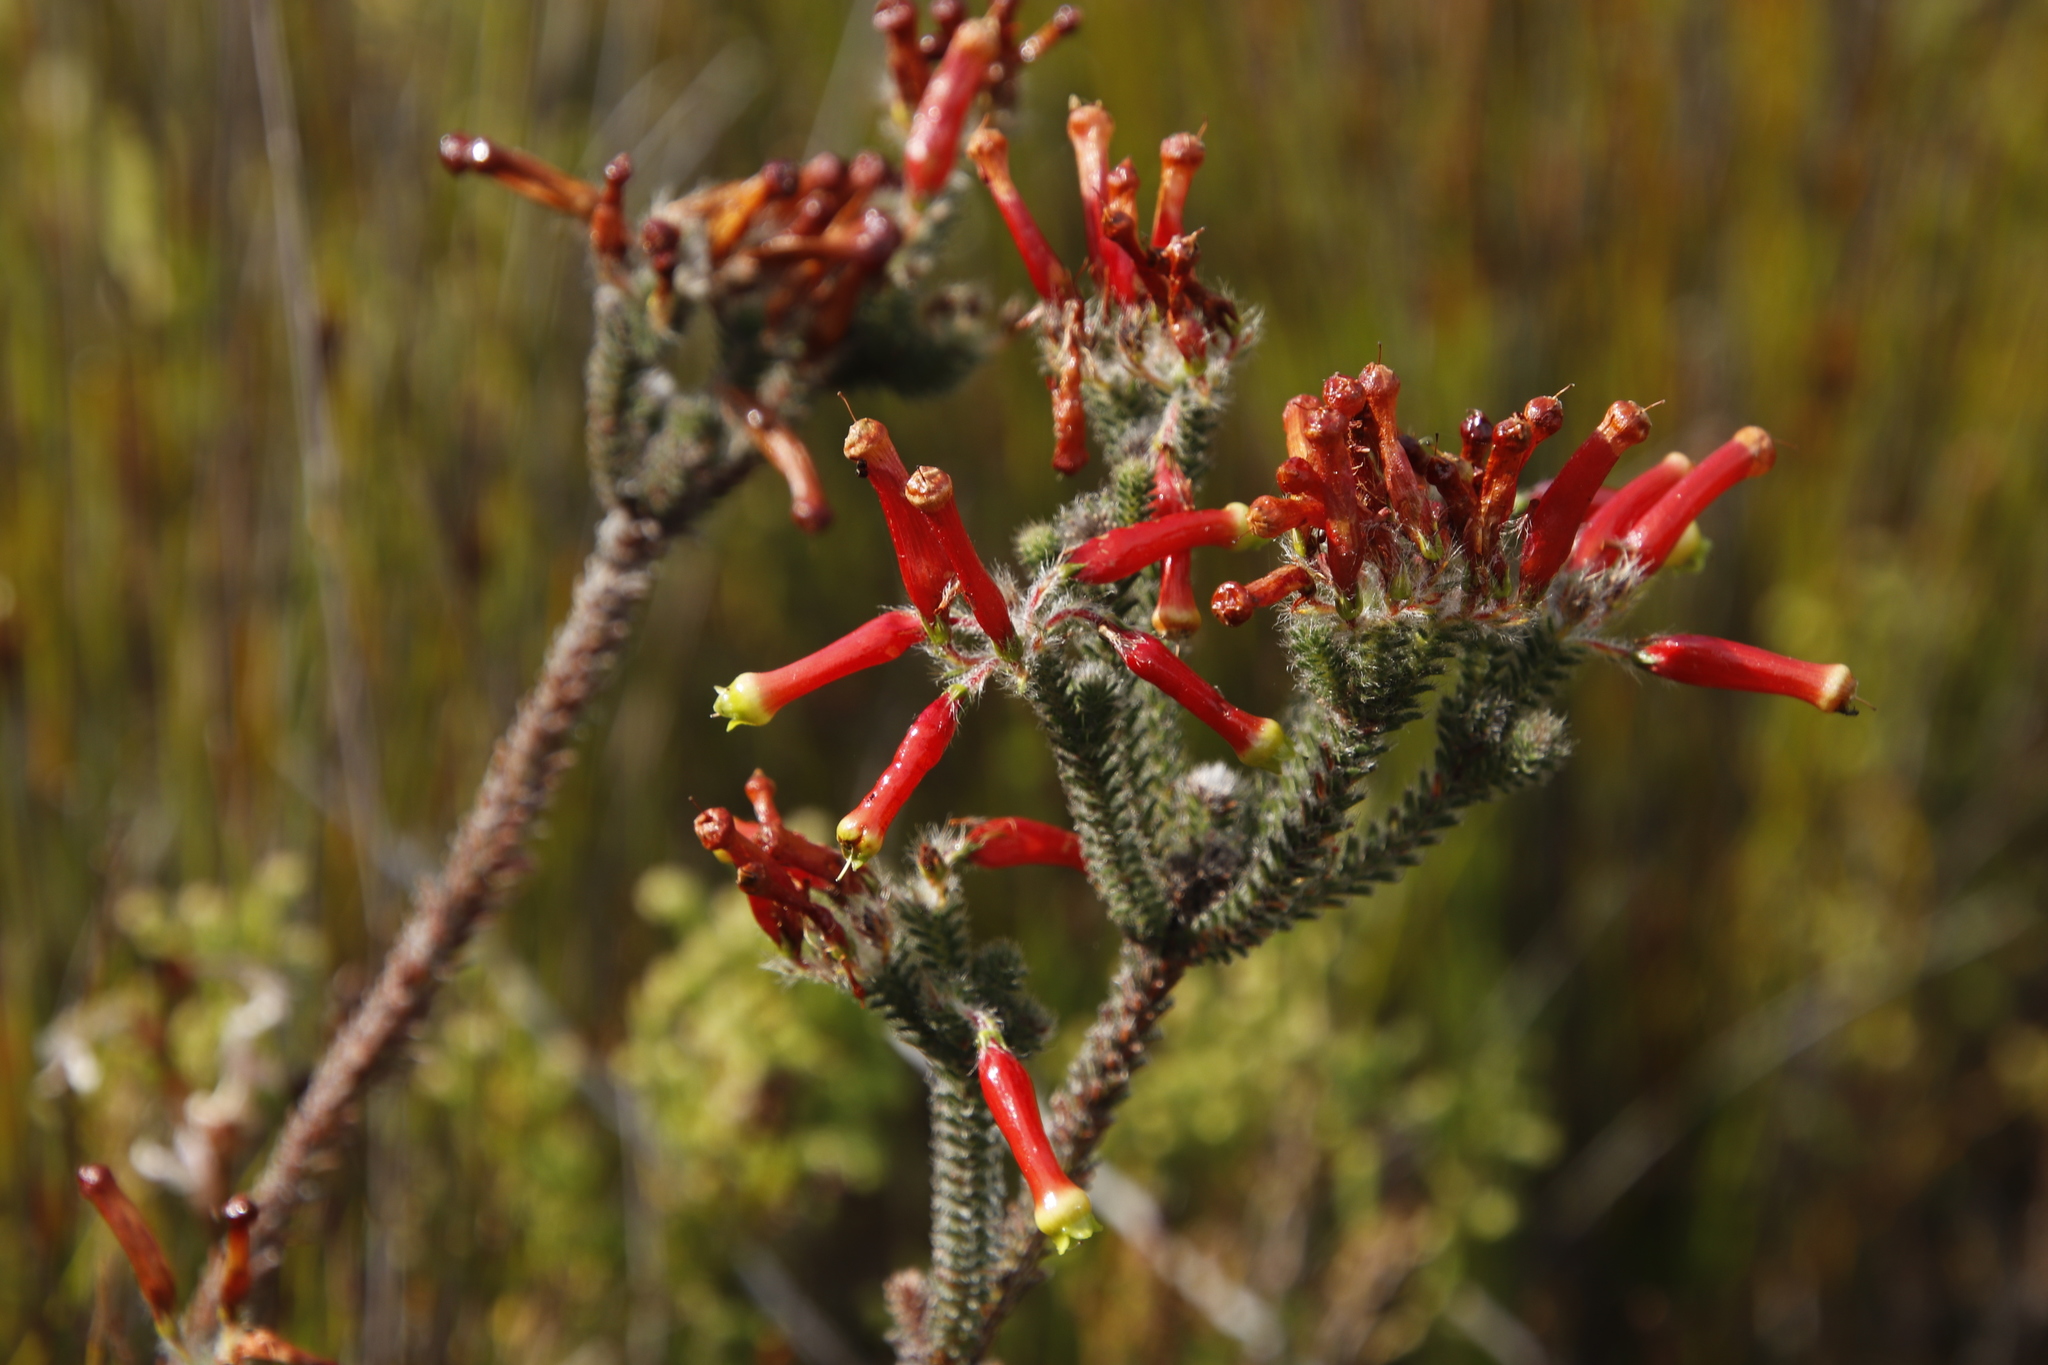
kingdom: Plantae
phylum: Tracheophyta
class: Magnoliopsida
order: Ericales
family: Ericaceae
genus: Erica
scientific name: Erica massonii
